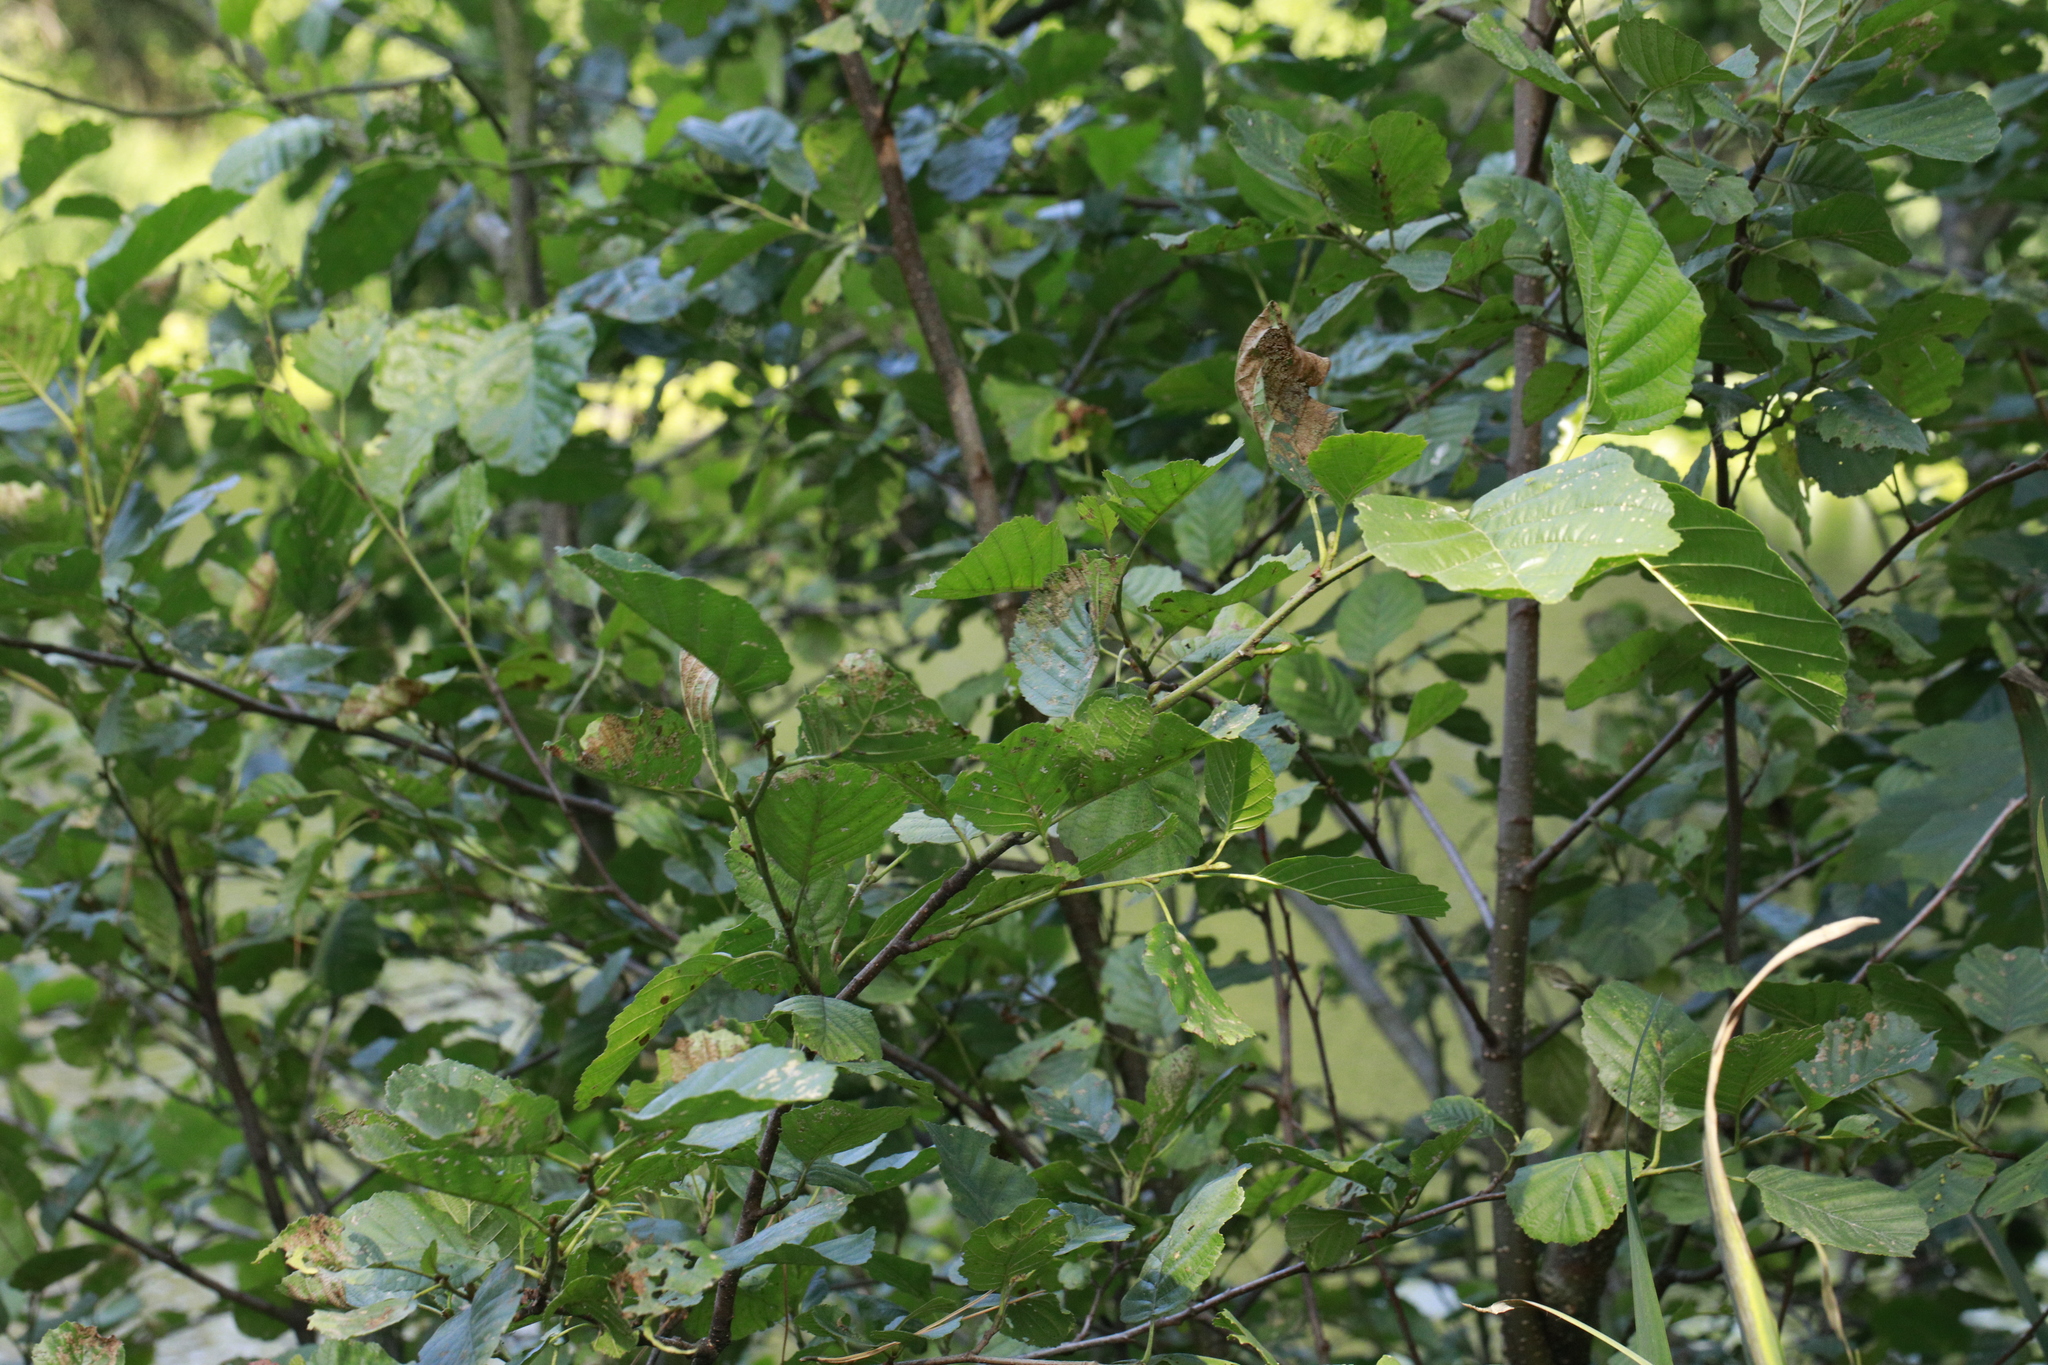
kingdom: Plantae
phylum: Tracheophyta
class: Magnoliopsida
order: Fagales
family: Betulaceae
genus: Alnus
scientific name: Alnus glutinosa
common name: Black alder
